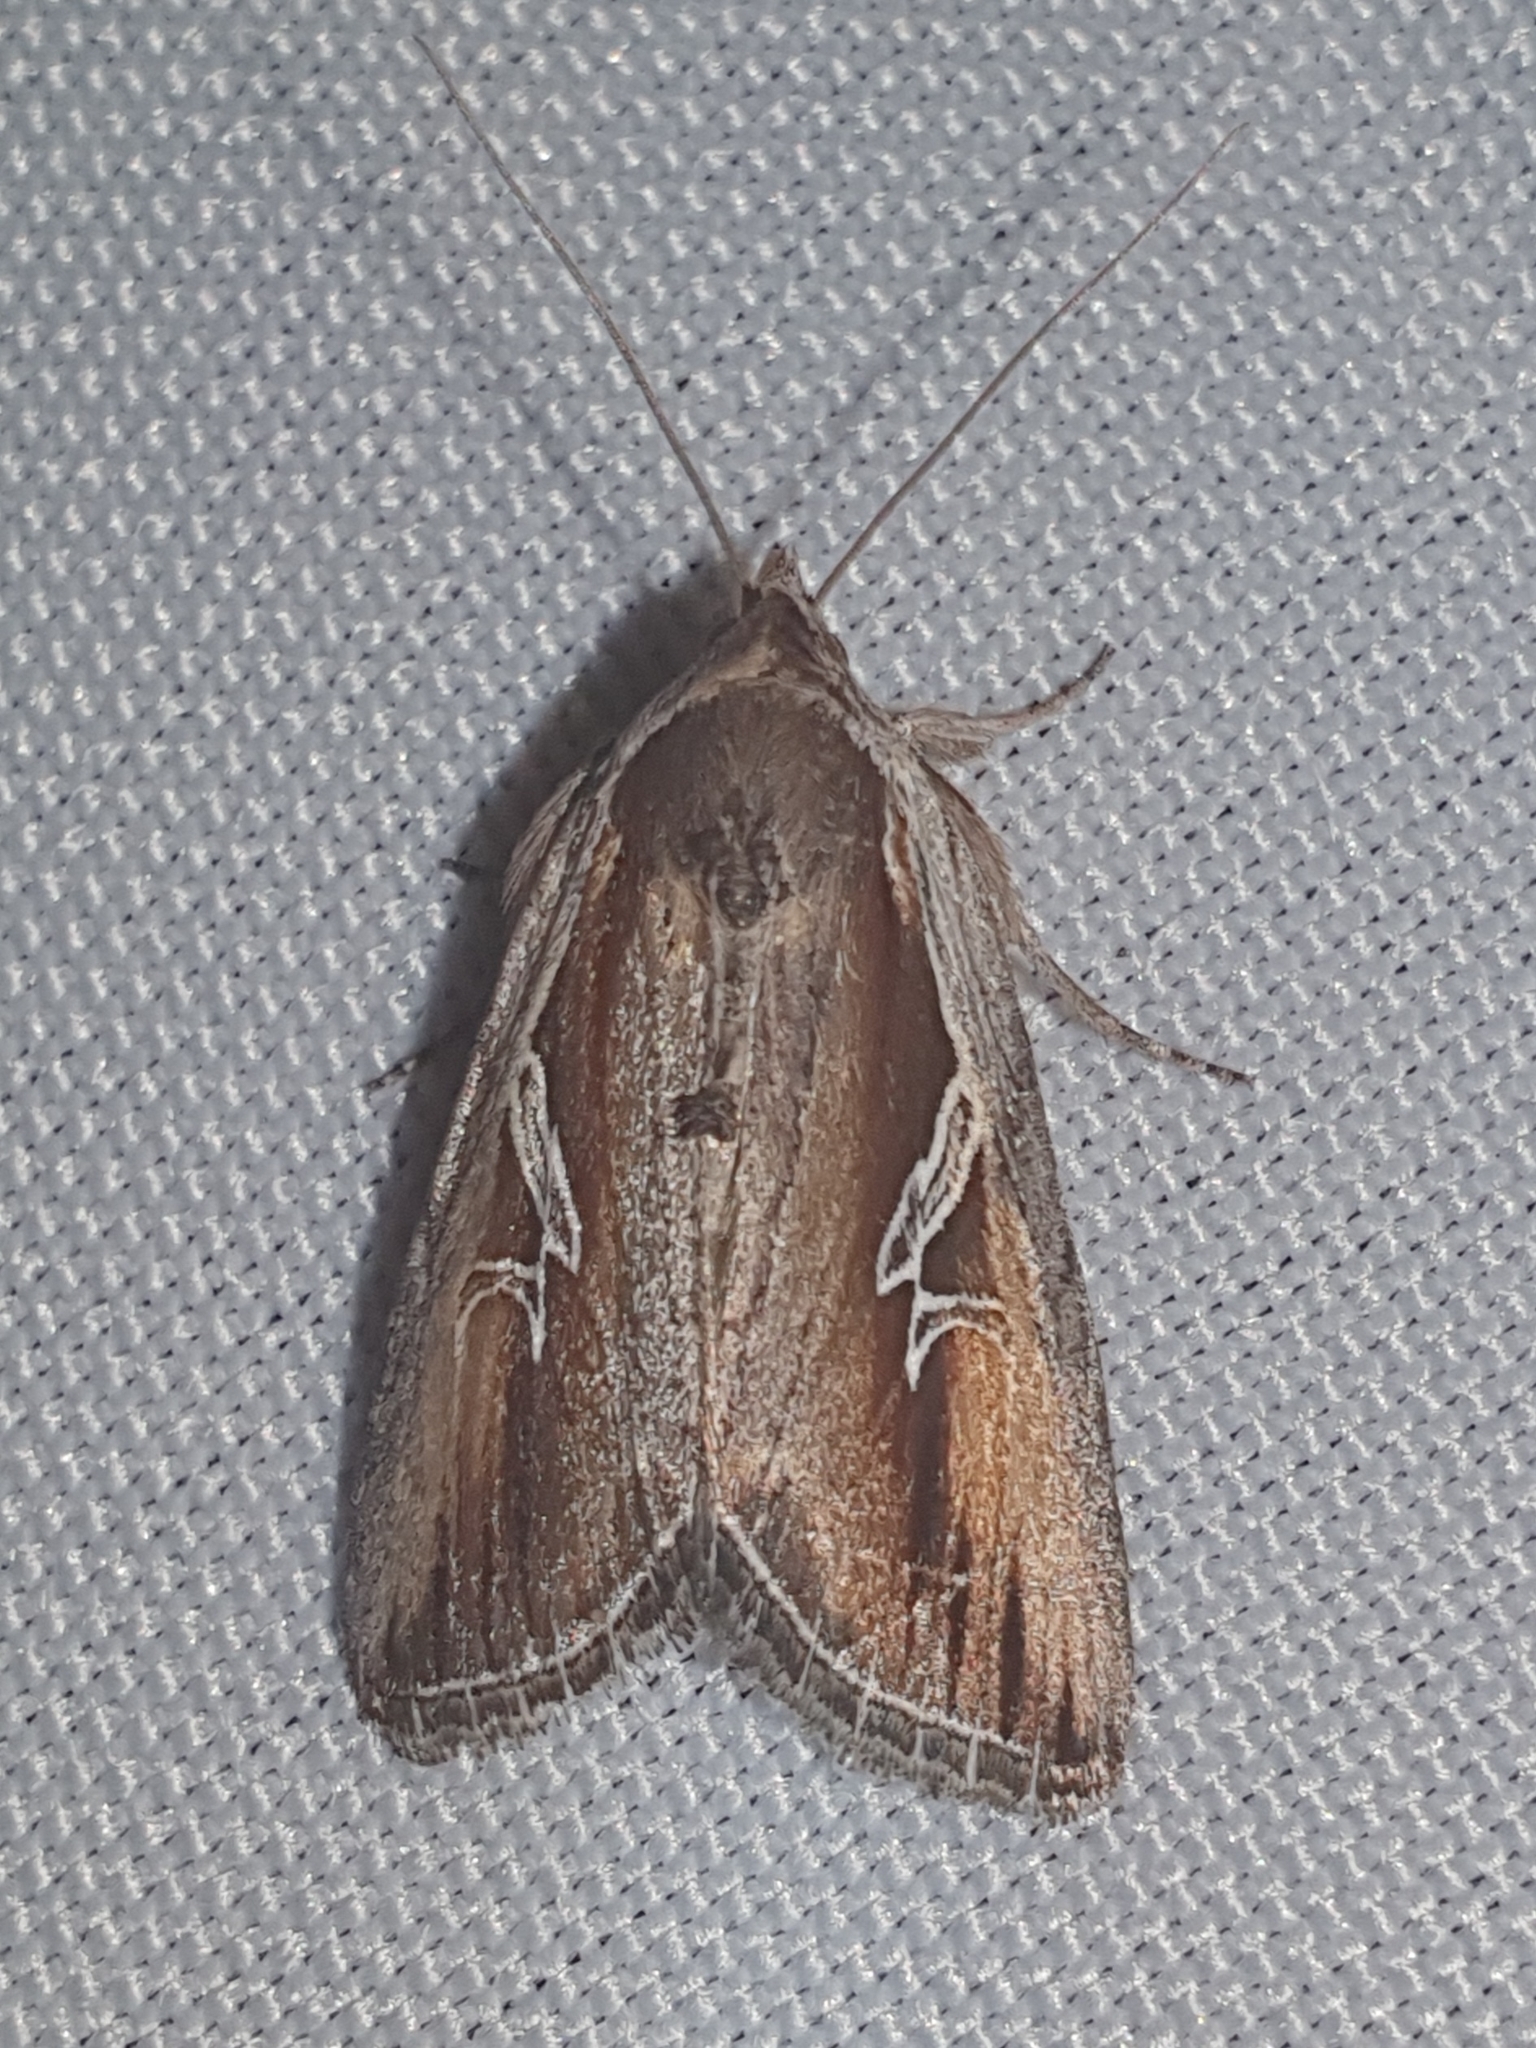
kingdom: Animalia
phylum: Arthropoda
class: Insecta
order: Lepidoptera
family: Noctuidae
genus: Lophoterges
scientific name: Lophoterges millierei
